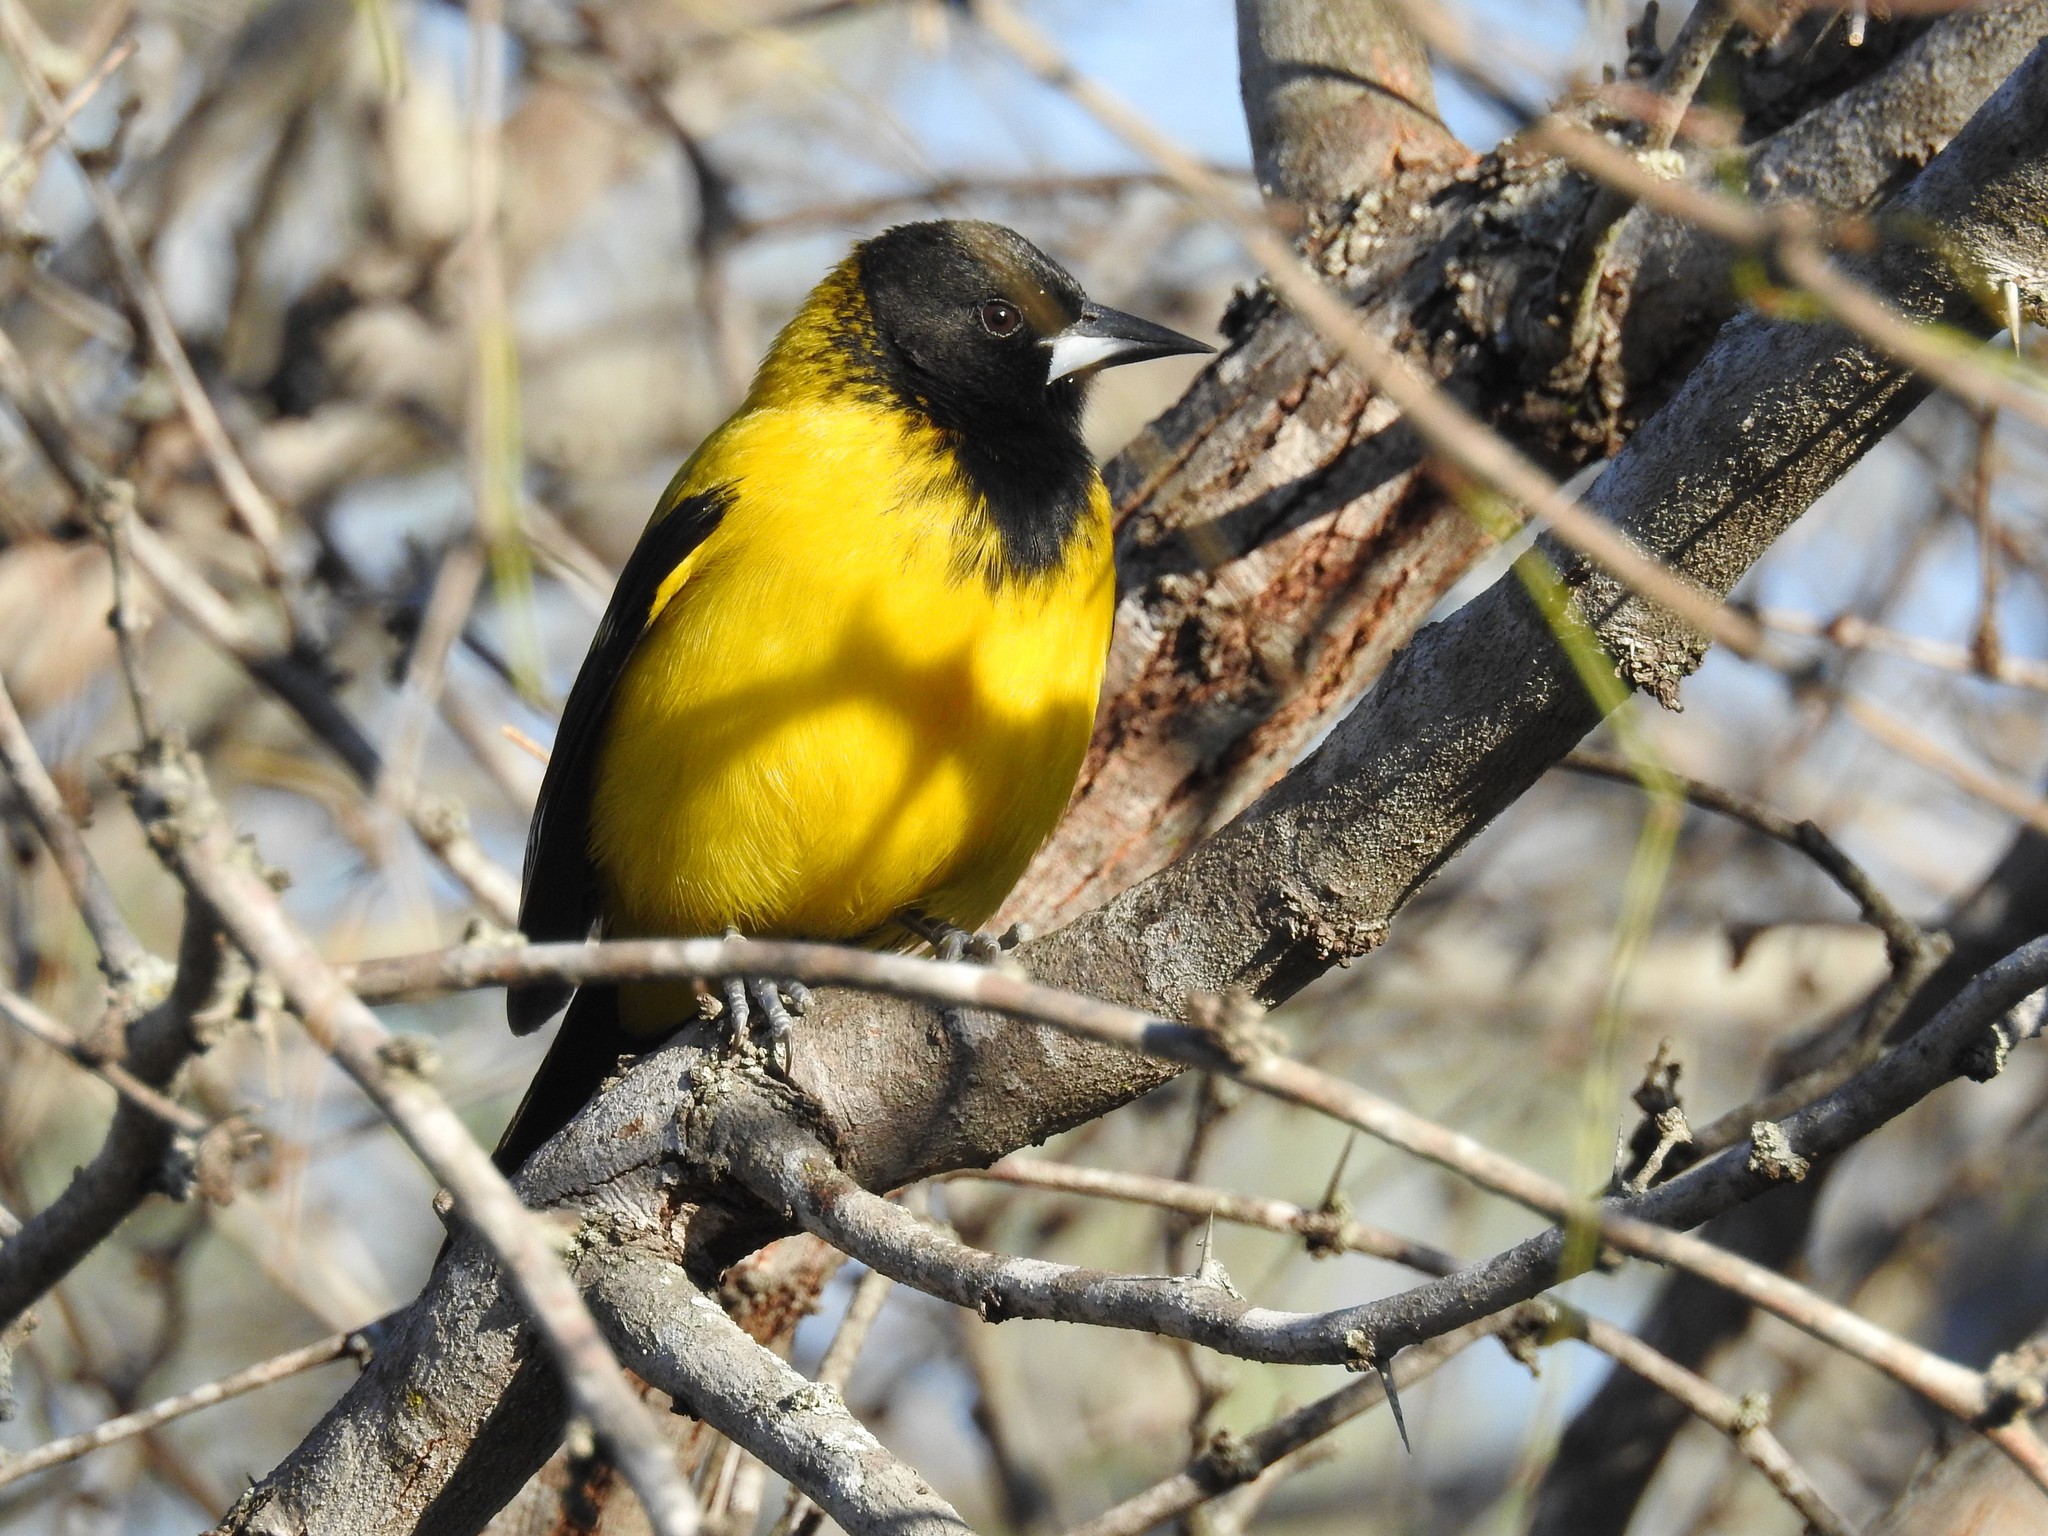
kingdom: Animalia
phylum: Chordata
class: Aves
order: Passeriformes
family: Icteridae
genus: Icterus
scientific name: Icterus graduacauda
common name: Audubon's oriole
